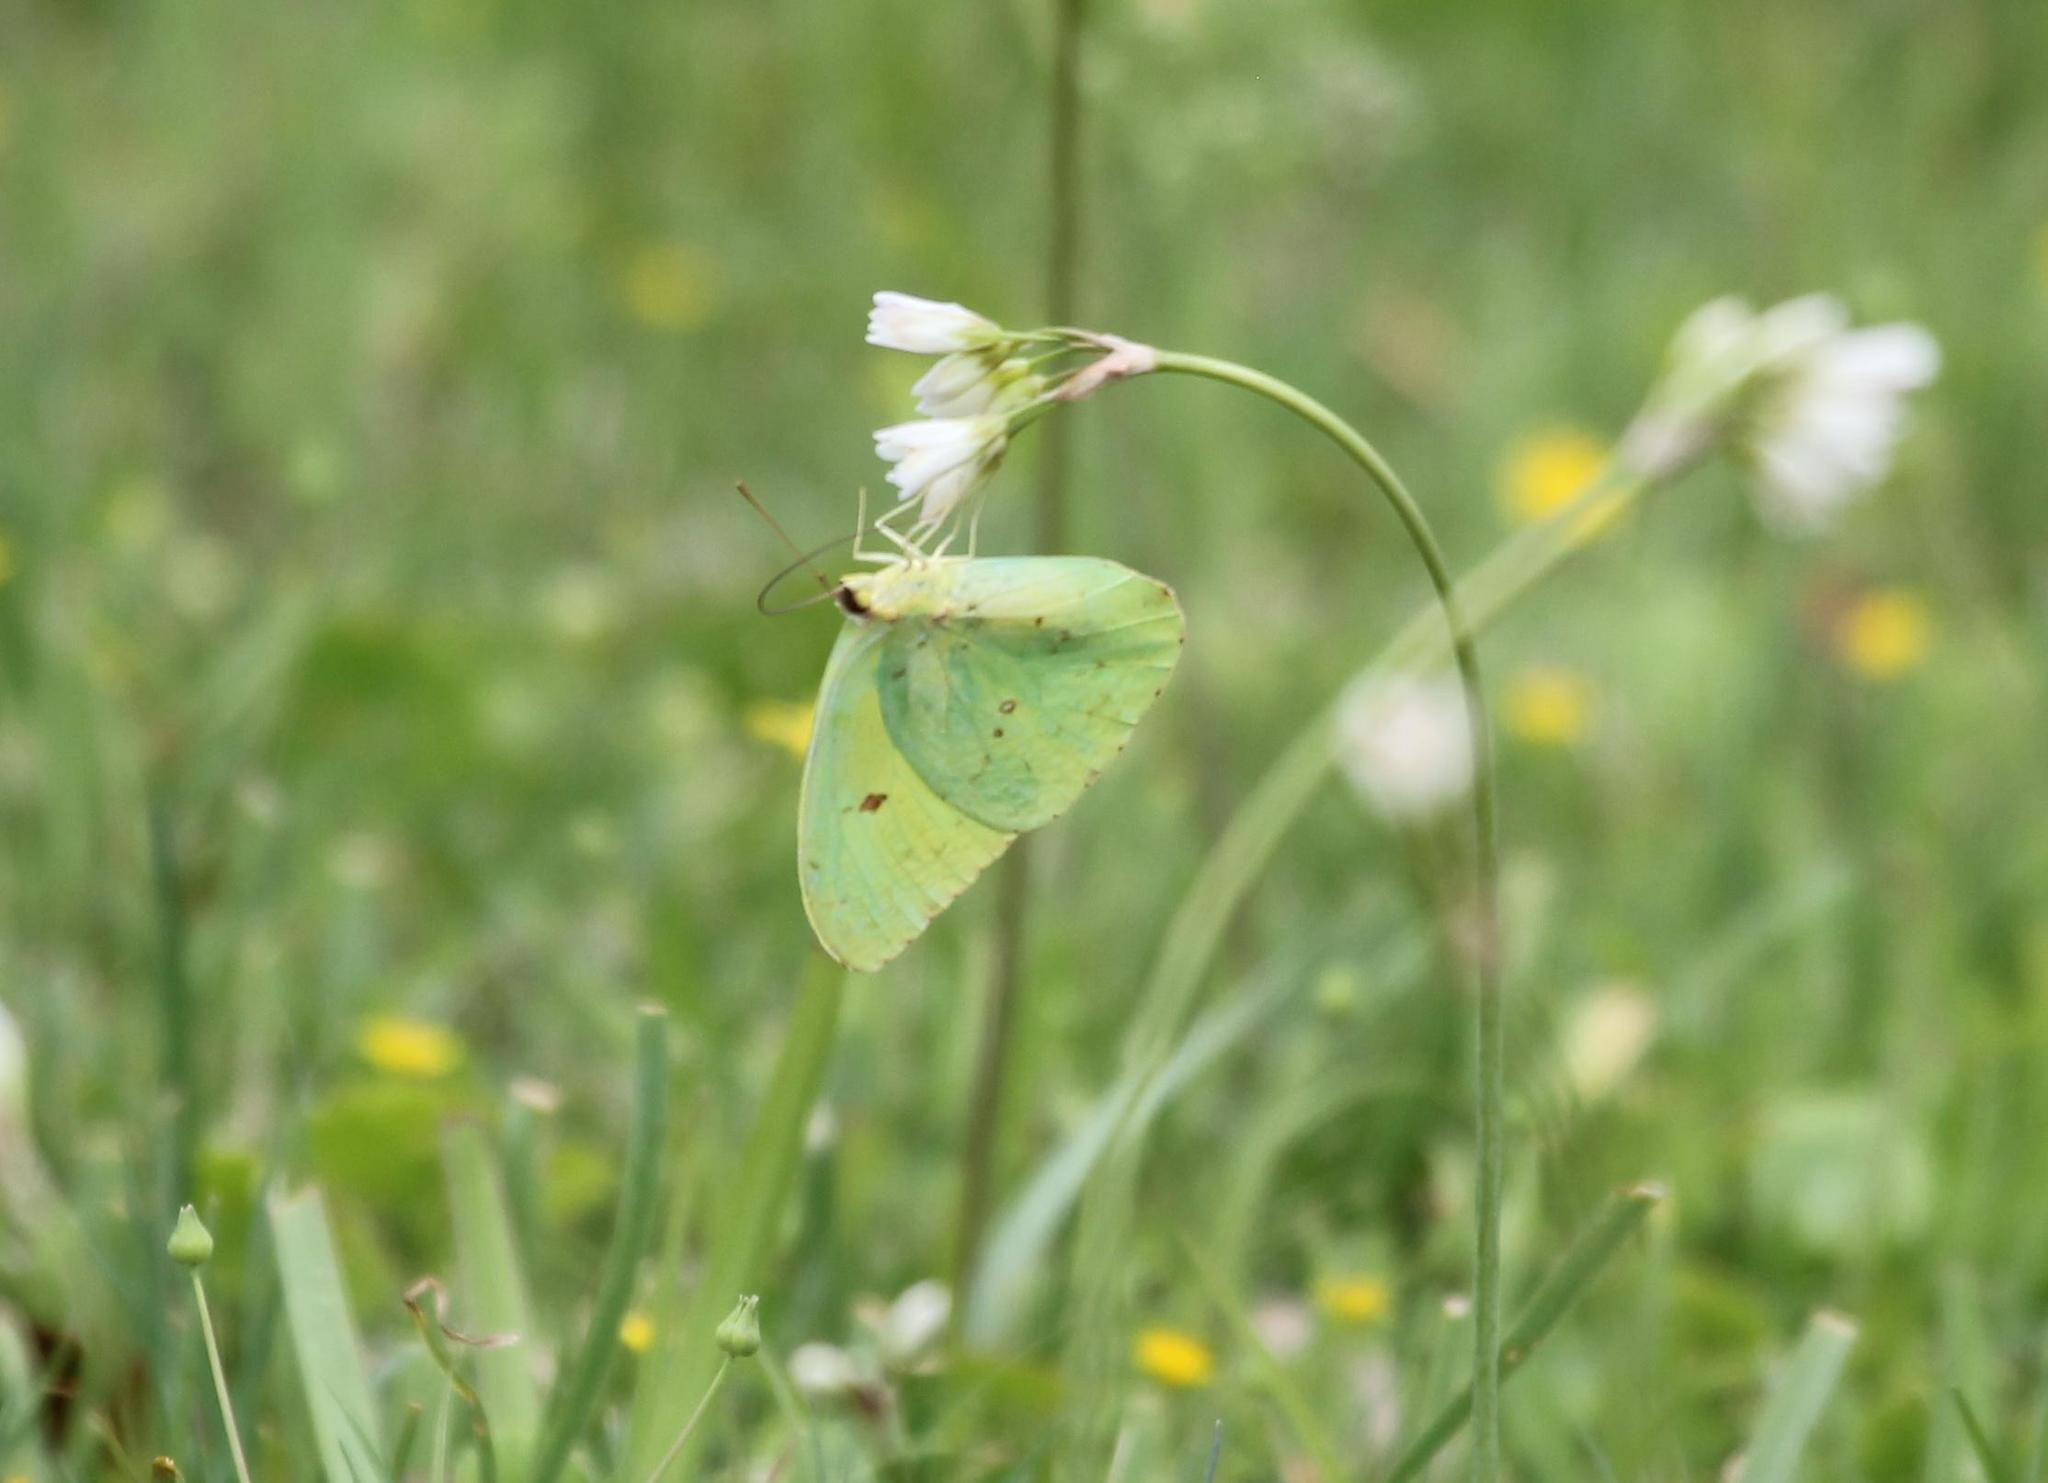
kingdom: Animalia
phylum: Arthropoda
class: Insecta
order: Lepidoptera
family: Pieridae
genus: Phoebis
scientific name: Phoebis sennae
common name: Cloudless sulphur
